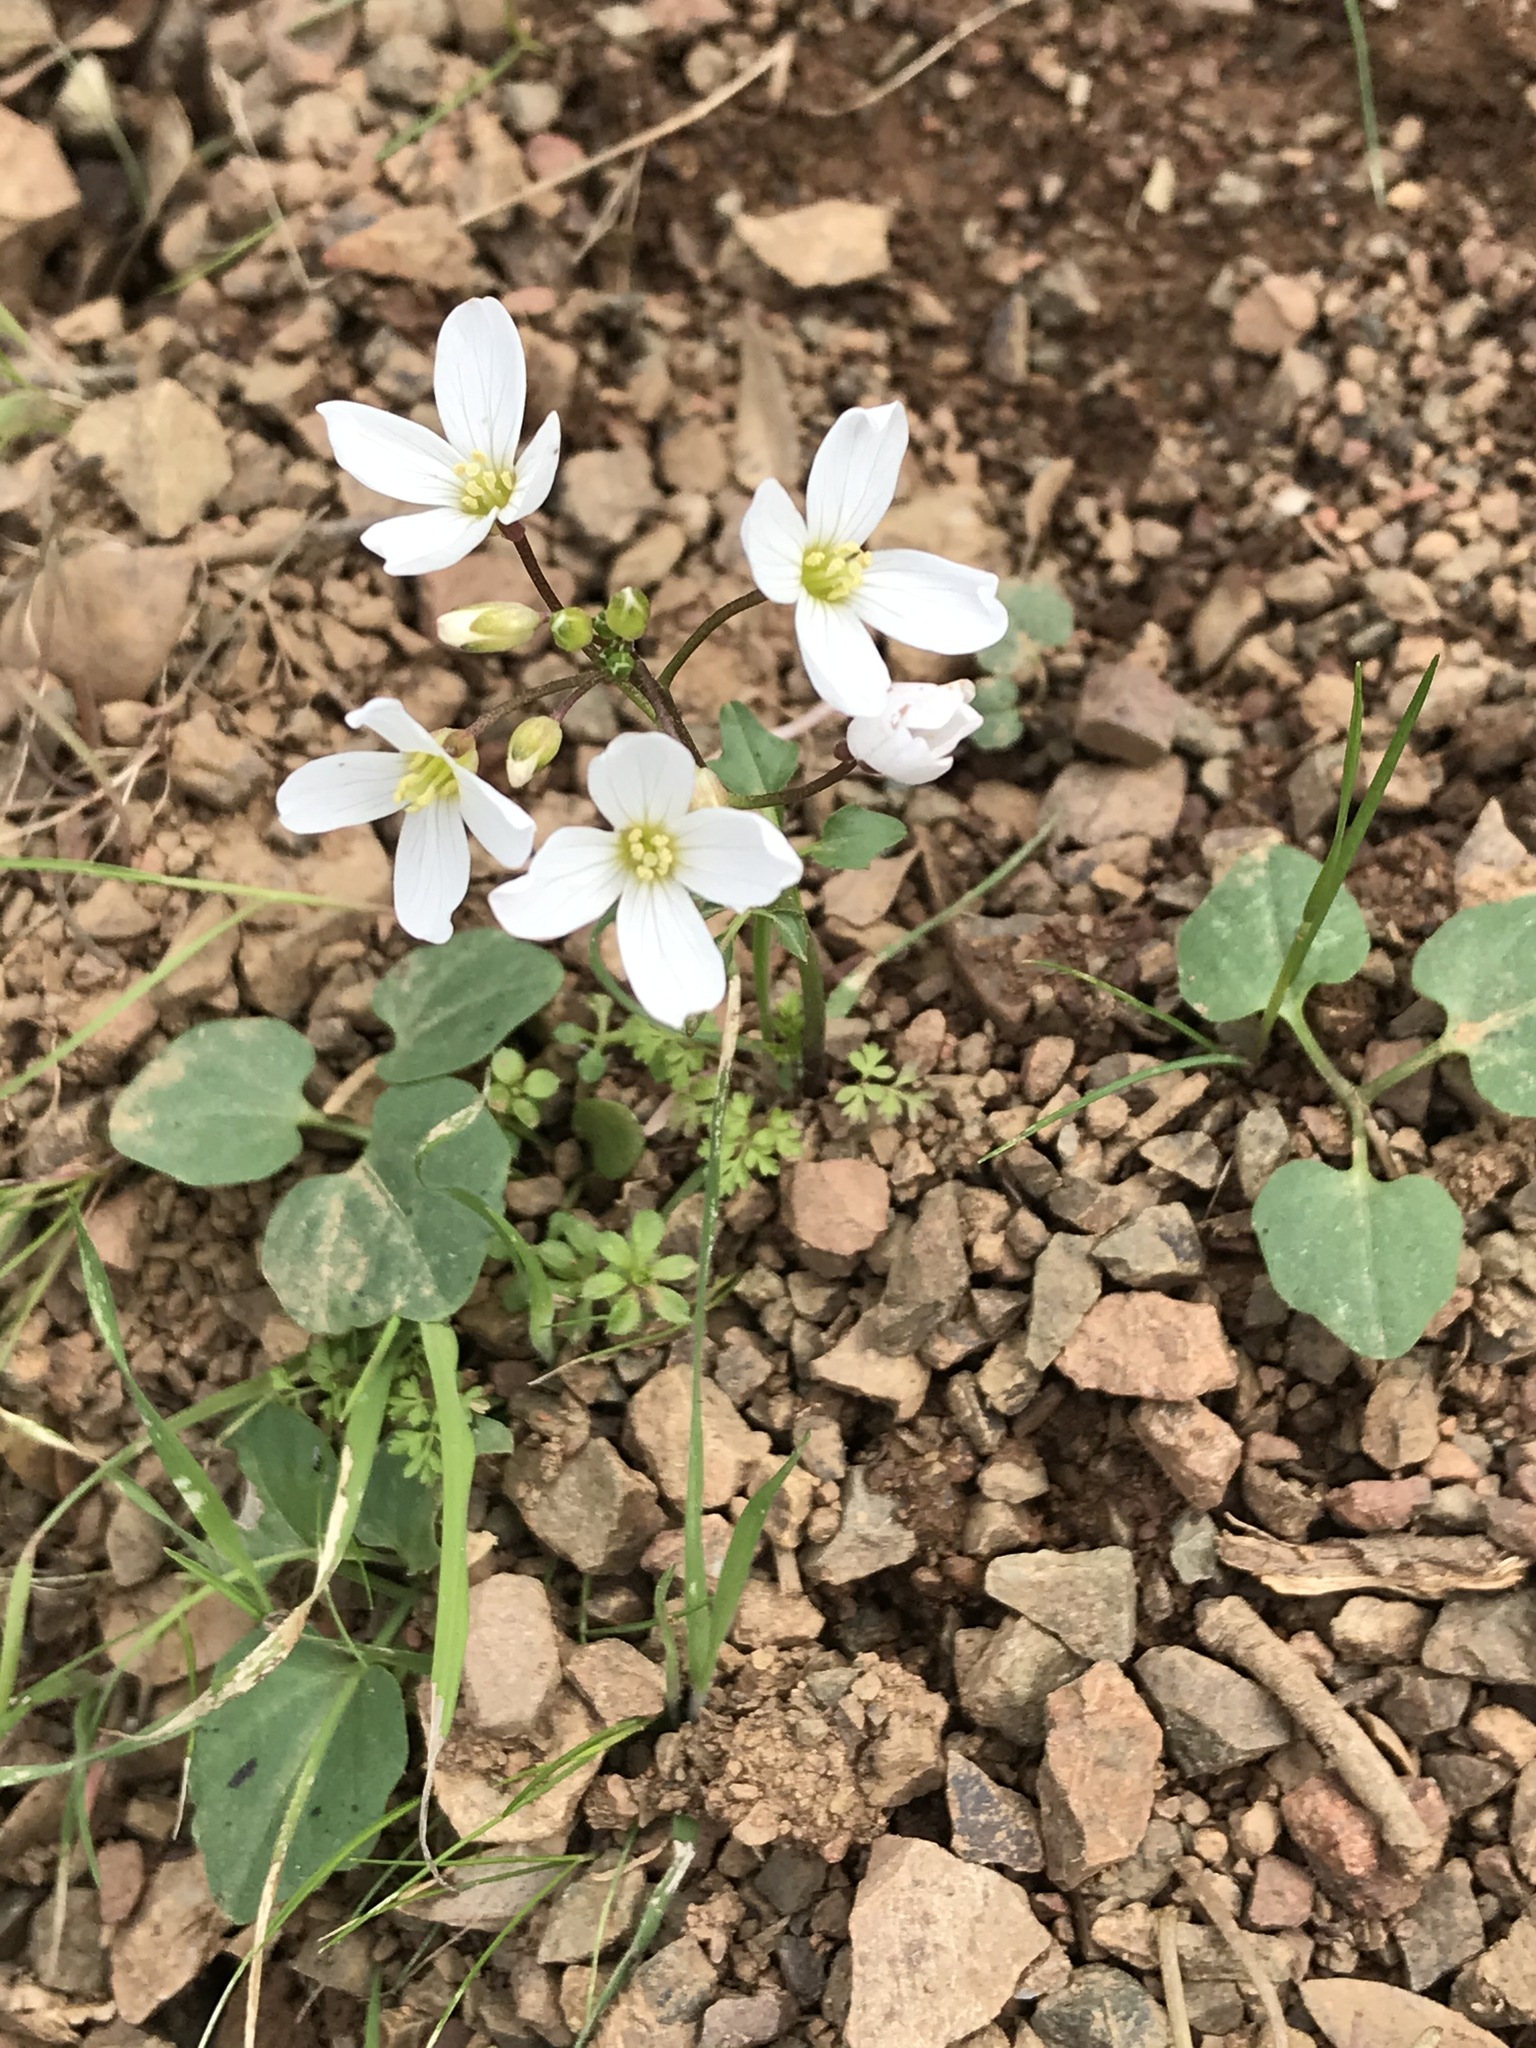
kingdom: Plantae
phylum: Tracheophyta
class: Magnoliopsida
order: Brassicales
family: Brassicaceae
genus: Cardamine
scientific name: Cardamine californica
